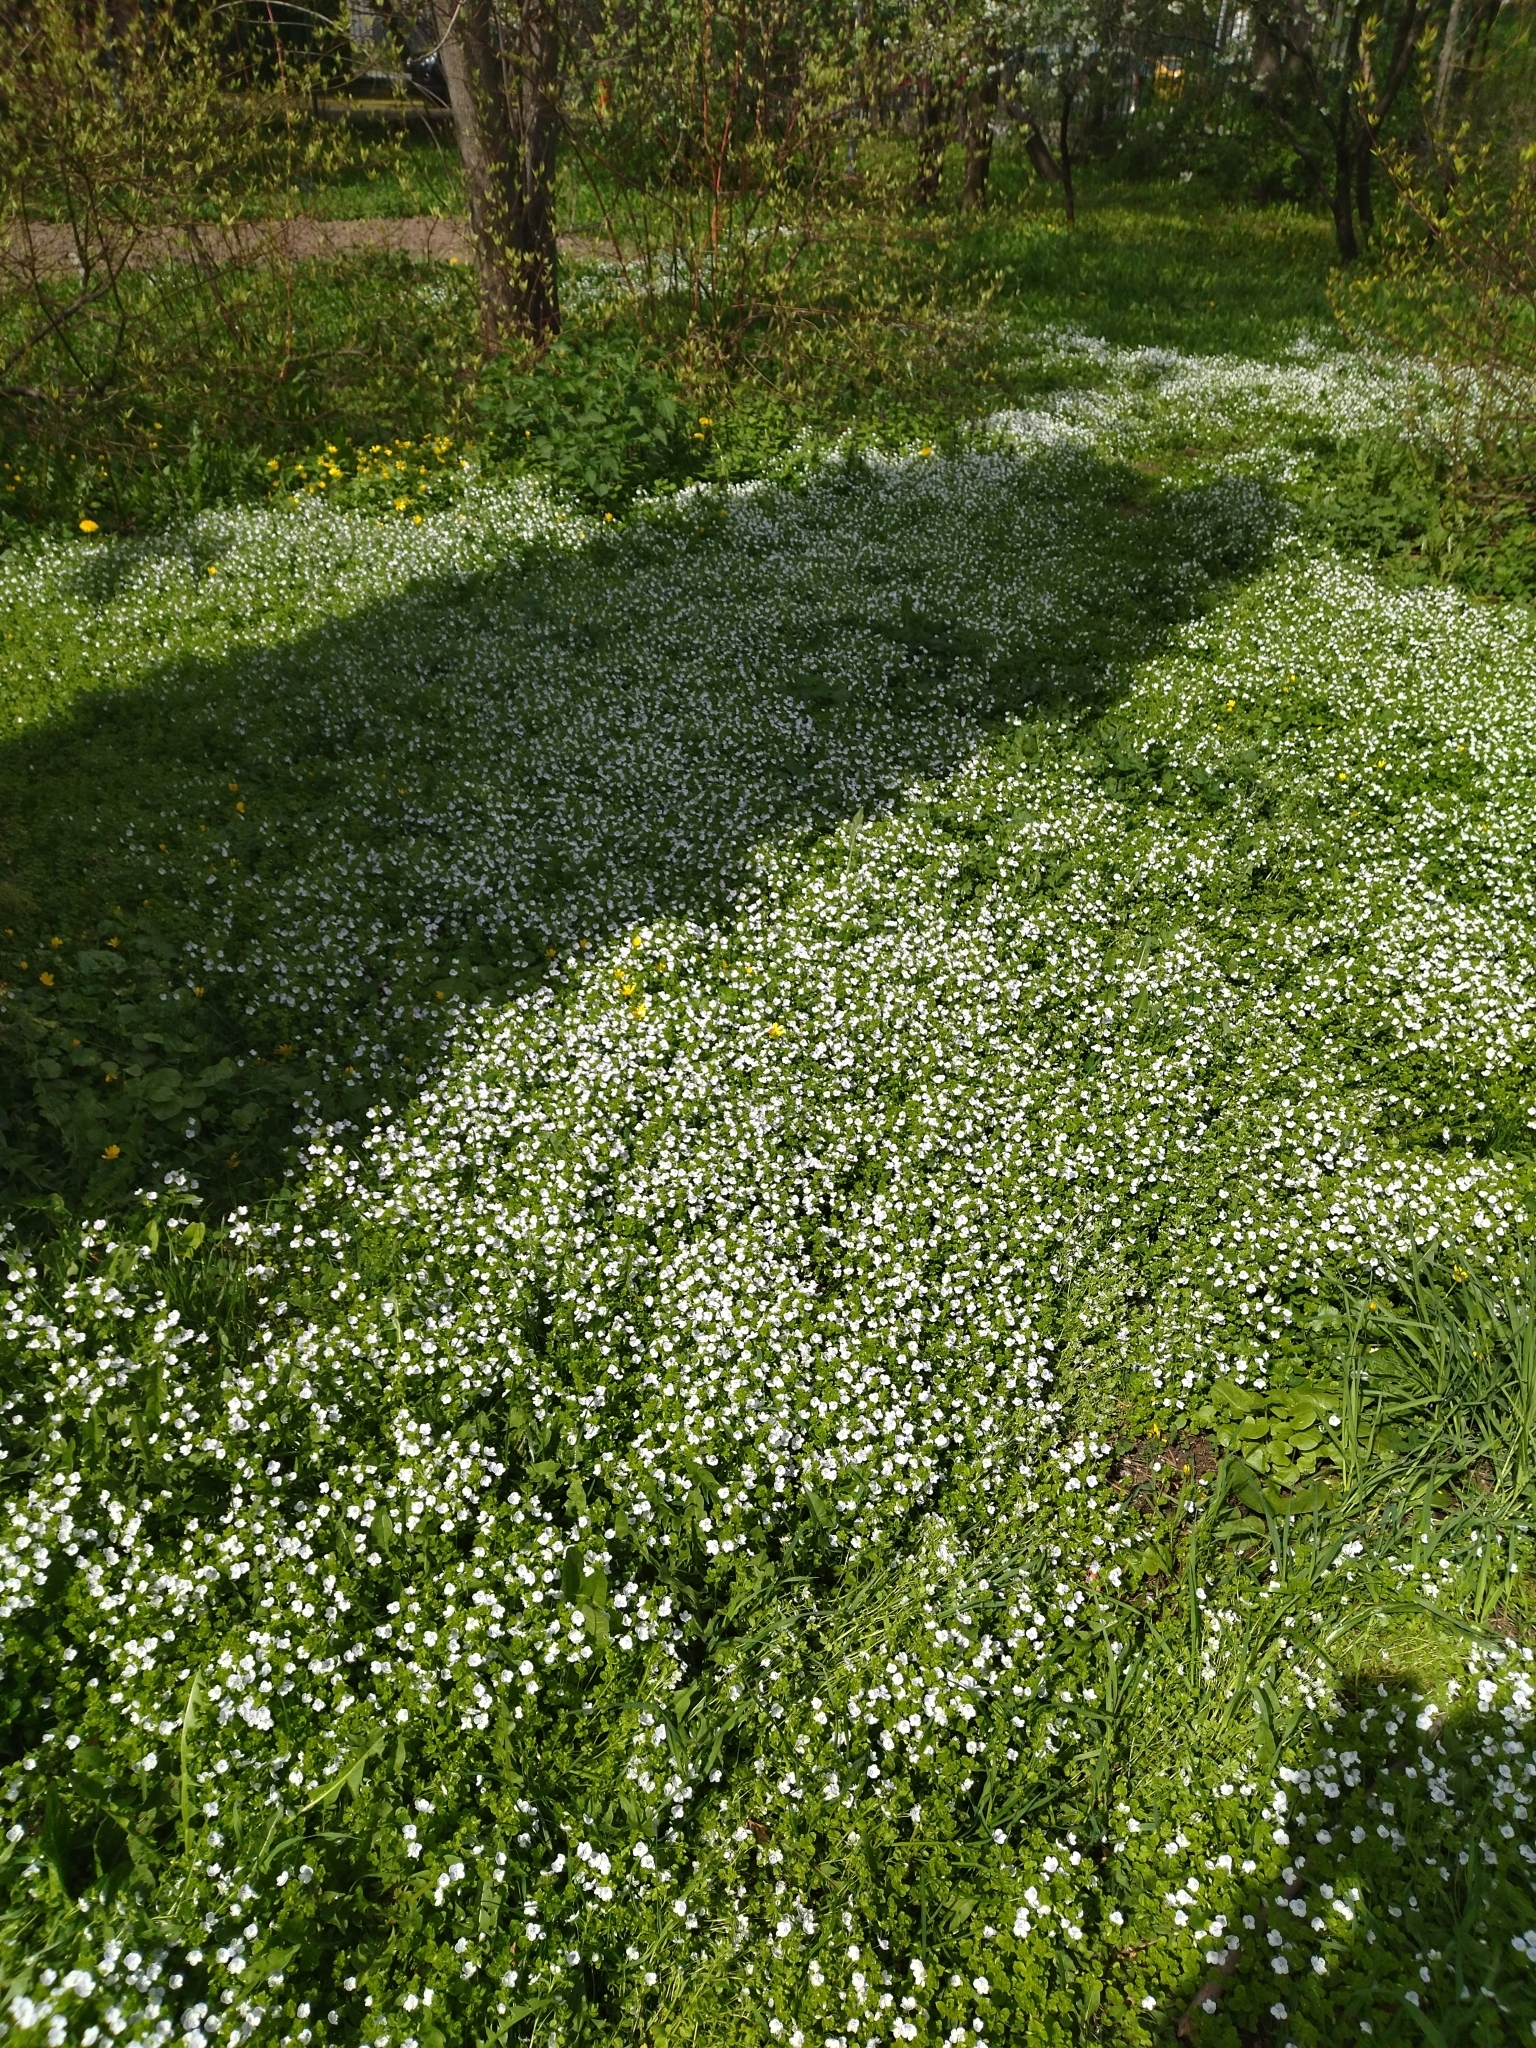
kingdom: Plantae
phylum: Tracheophyta
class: Magnoliopsida
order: Lamiales
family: Plantaginaceae
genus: Veronica
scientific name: Veronica filiformis
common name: Slender speedwell
